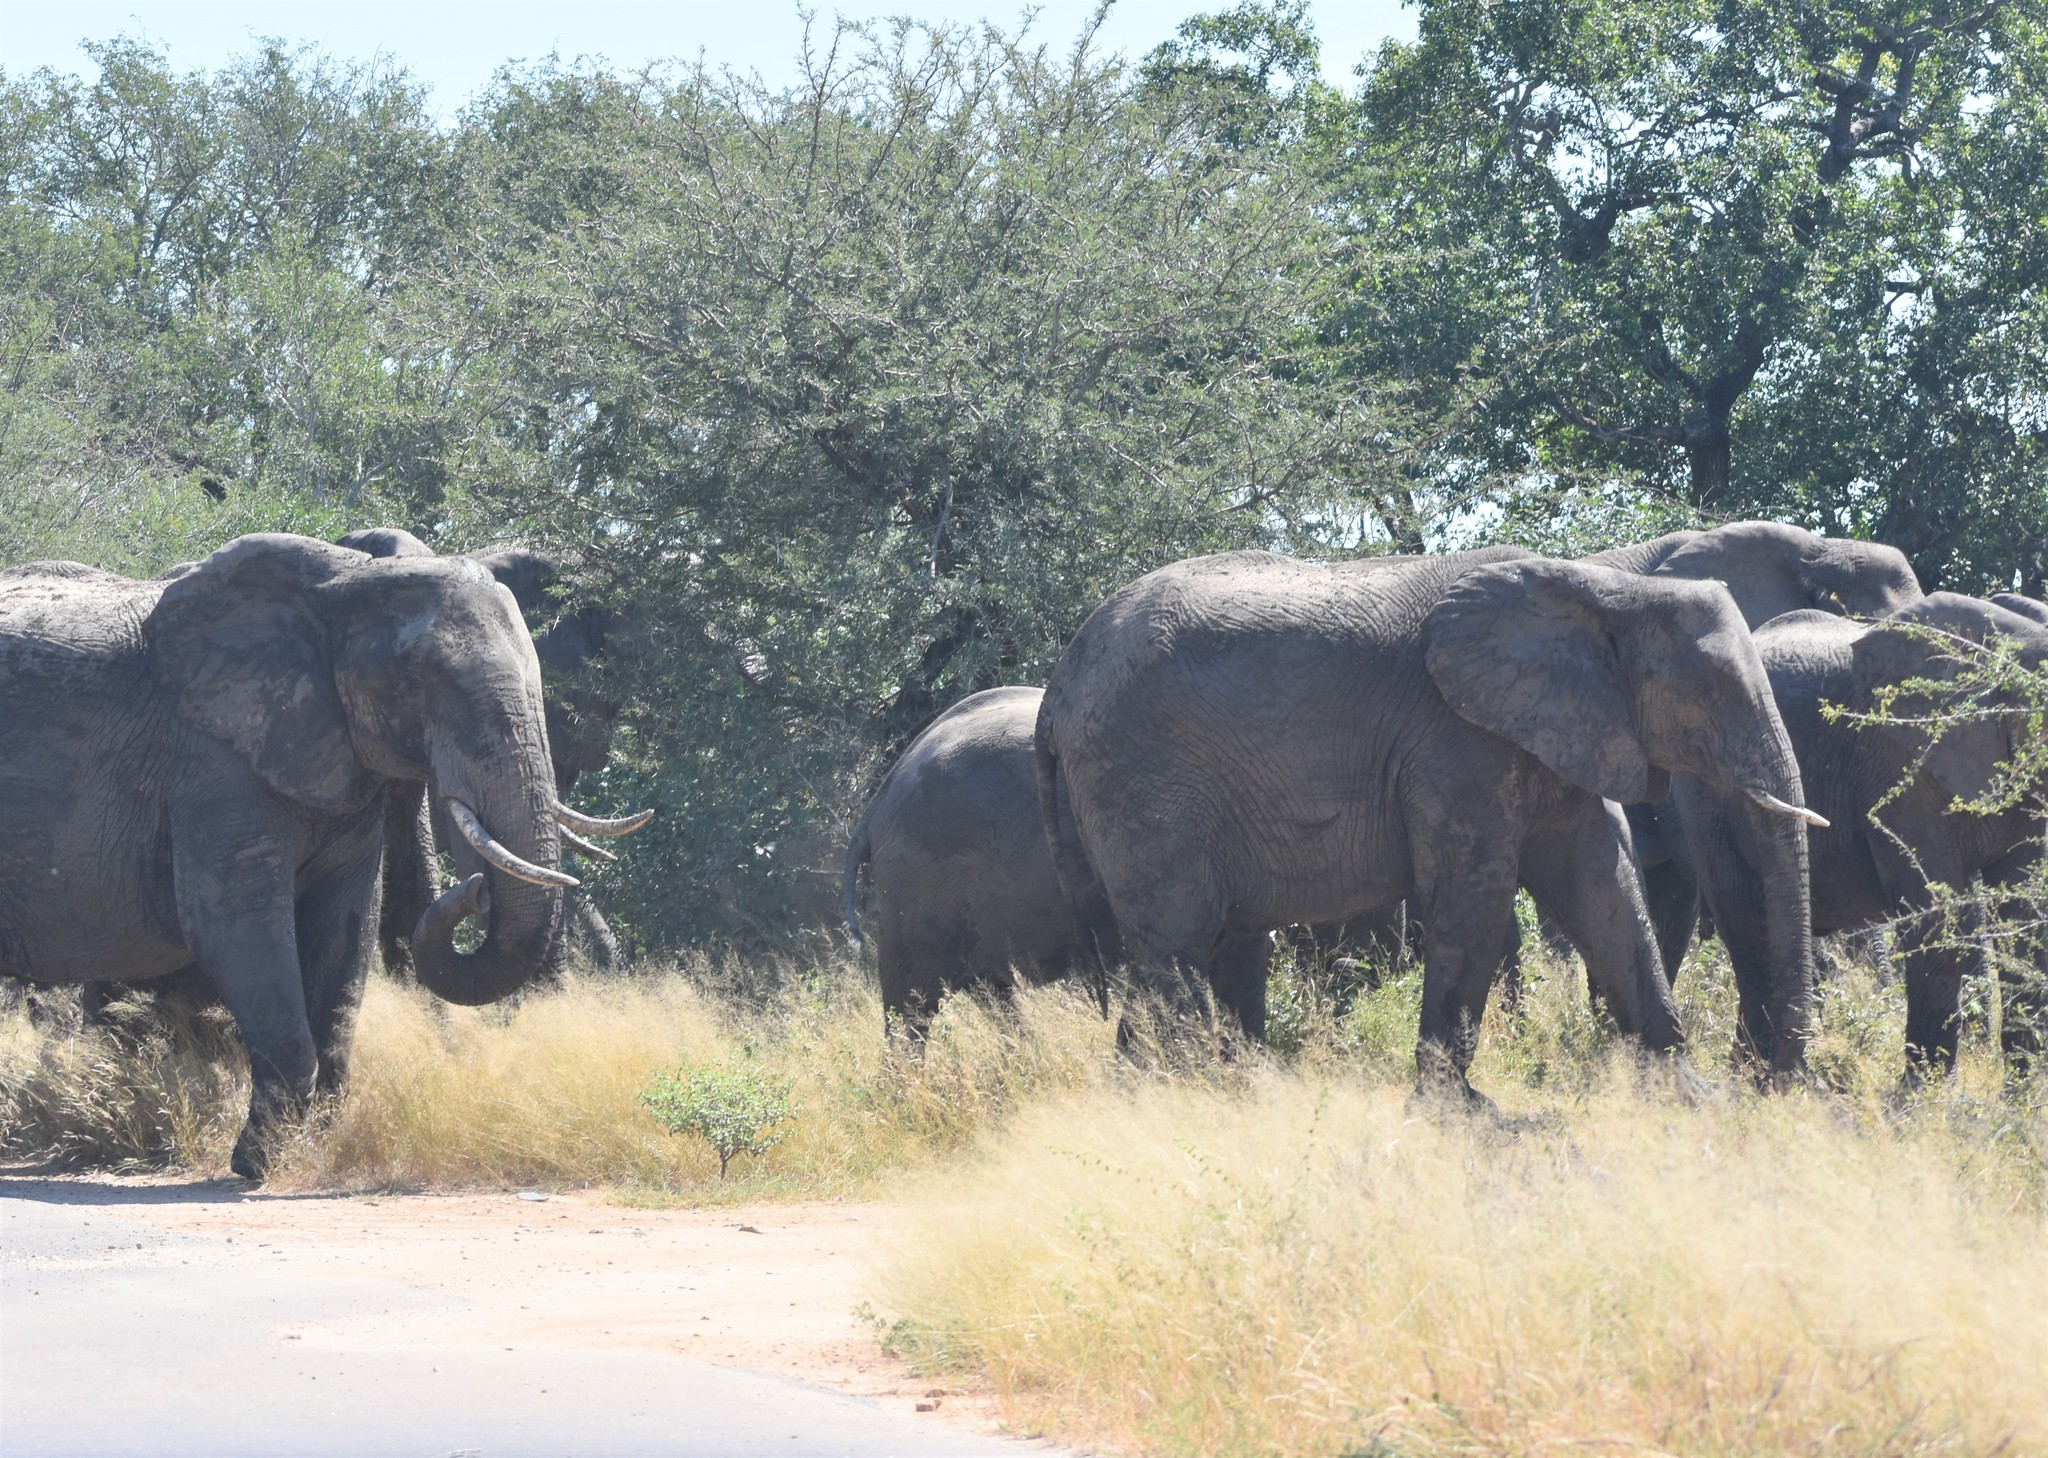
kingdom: Animalia
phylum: Chordata
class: Mammalia
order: Proboscidea
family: Elephantidae
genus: Loxodonta
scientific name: Loxodonta africana
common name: African elephant
